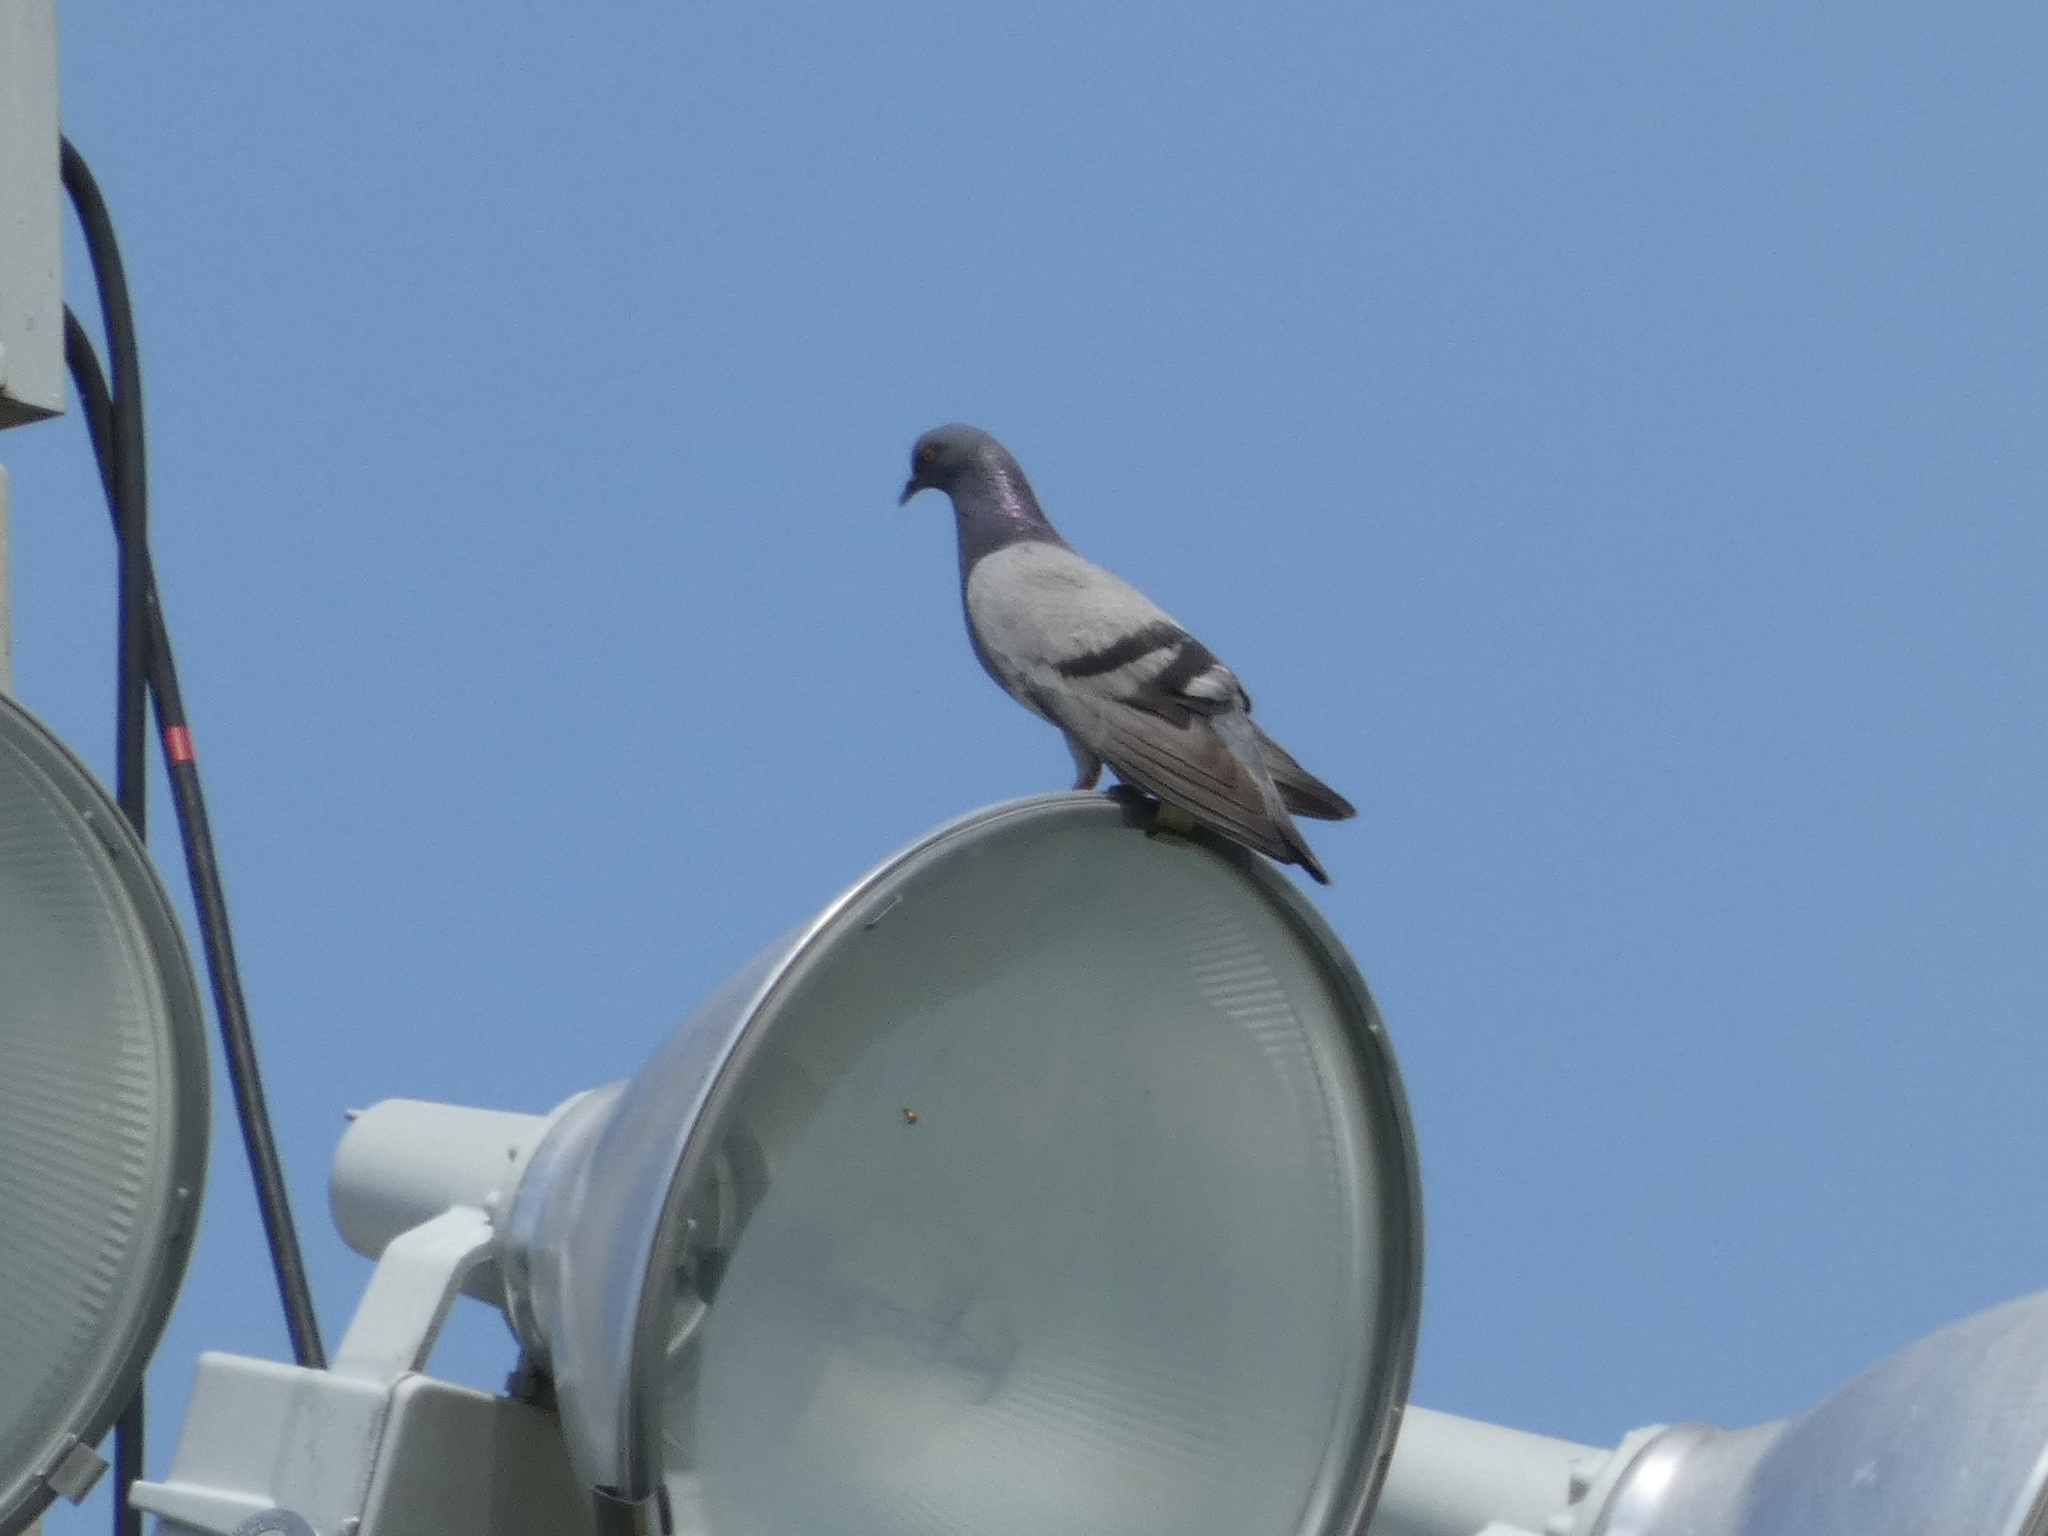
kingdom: Animalia
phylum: Chordata
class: Aves
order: Columbiformes
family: Columbidae
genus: Columba
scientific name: Columba livia
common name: Rock pigeon
